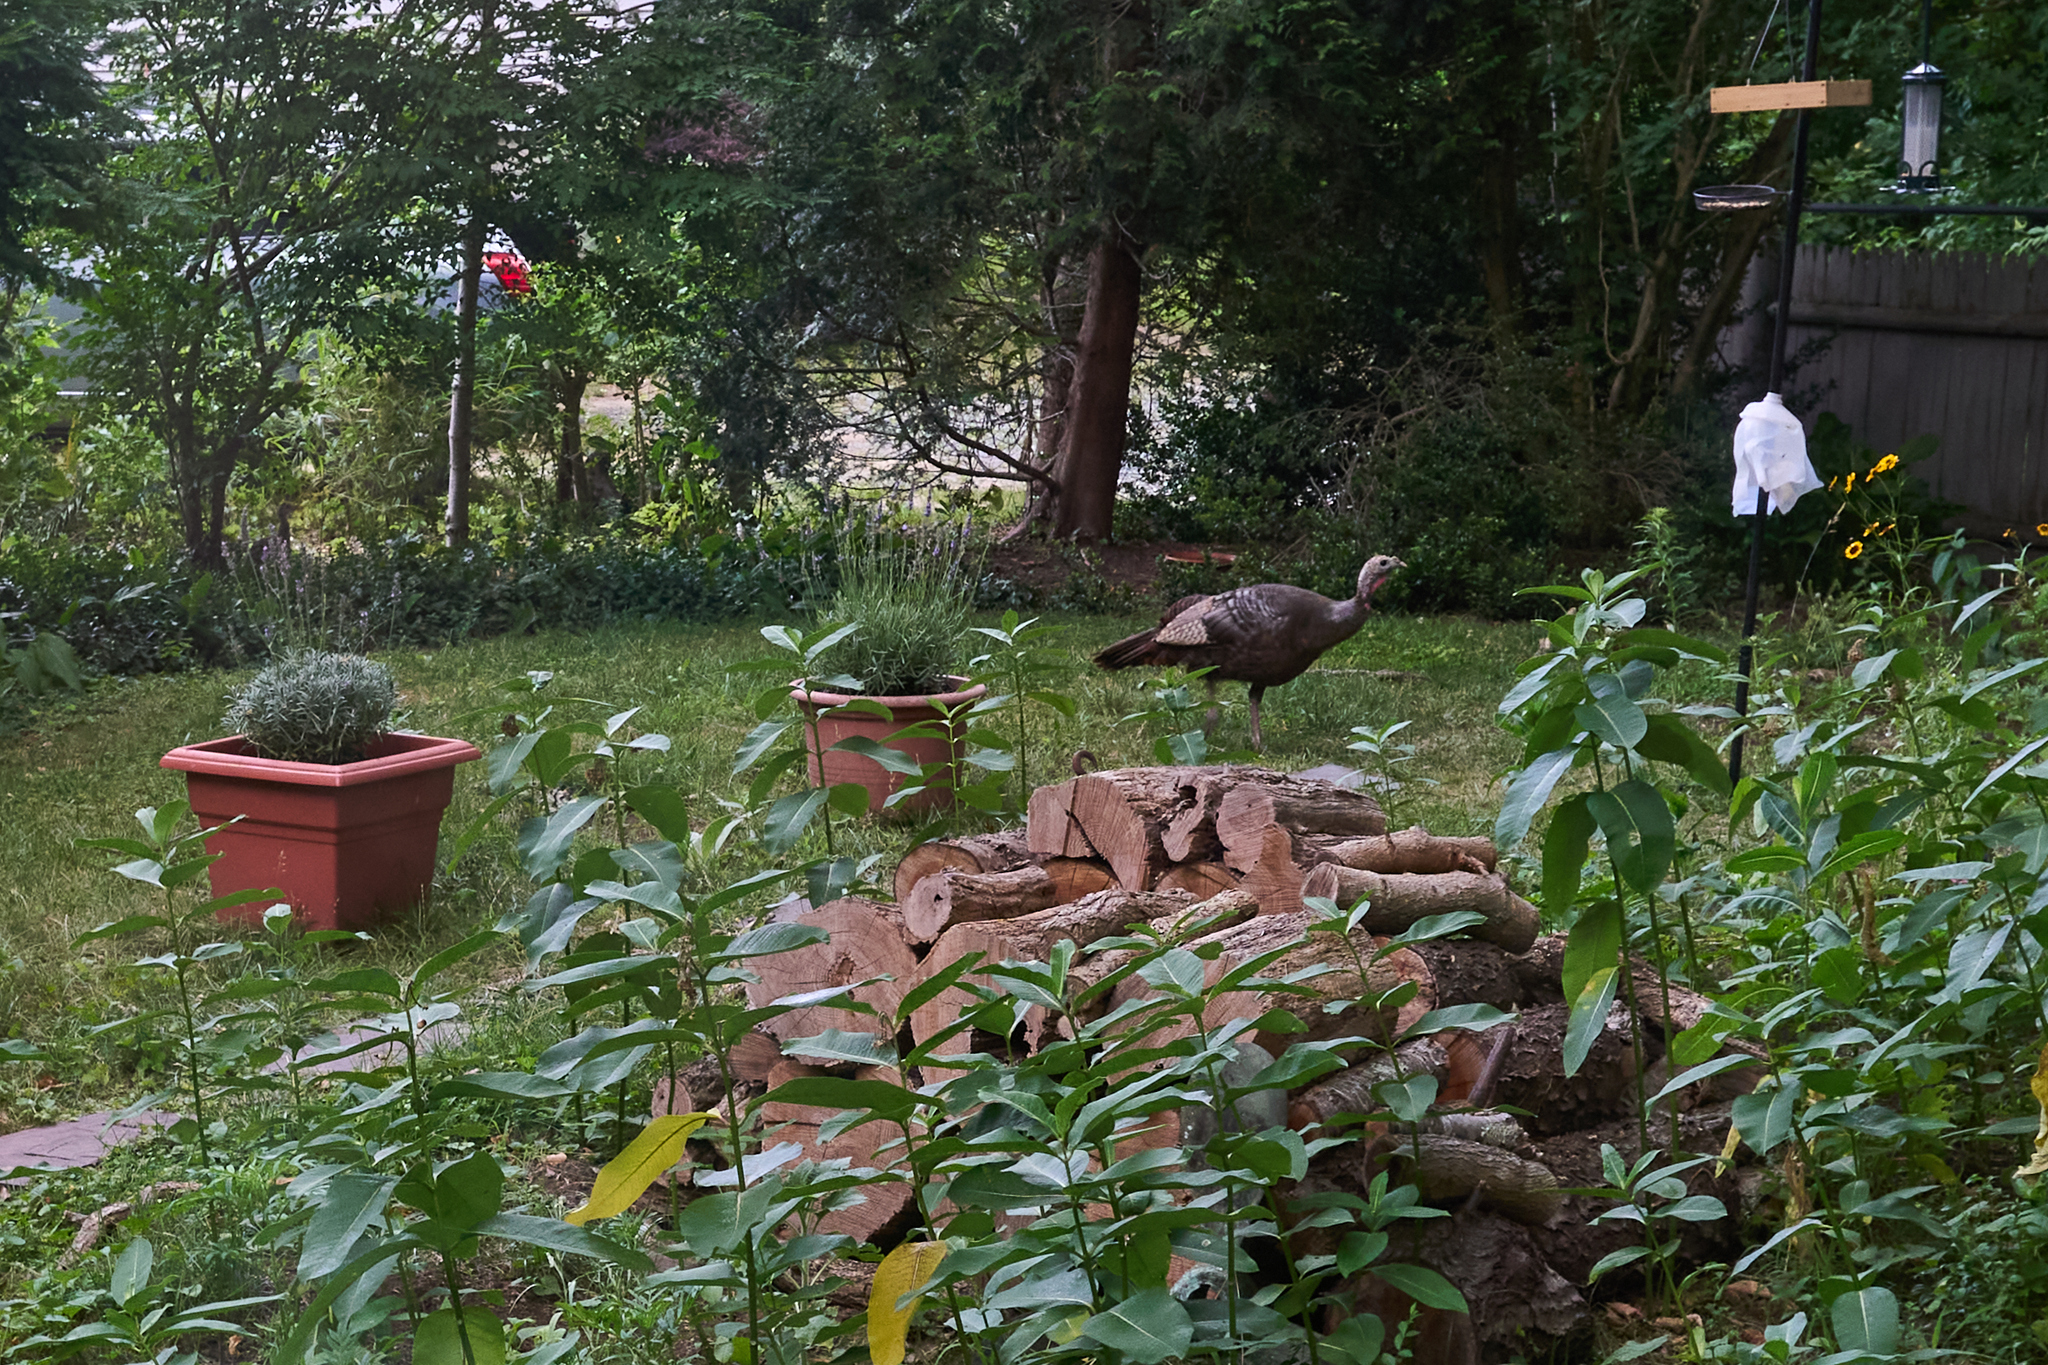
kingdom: Animalia
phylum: Chordata
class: Aves
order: Galliformes
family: Phasianidae
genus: Meleagris
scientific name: Meleagris gallopavo
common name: Wild turkey
